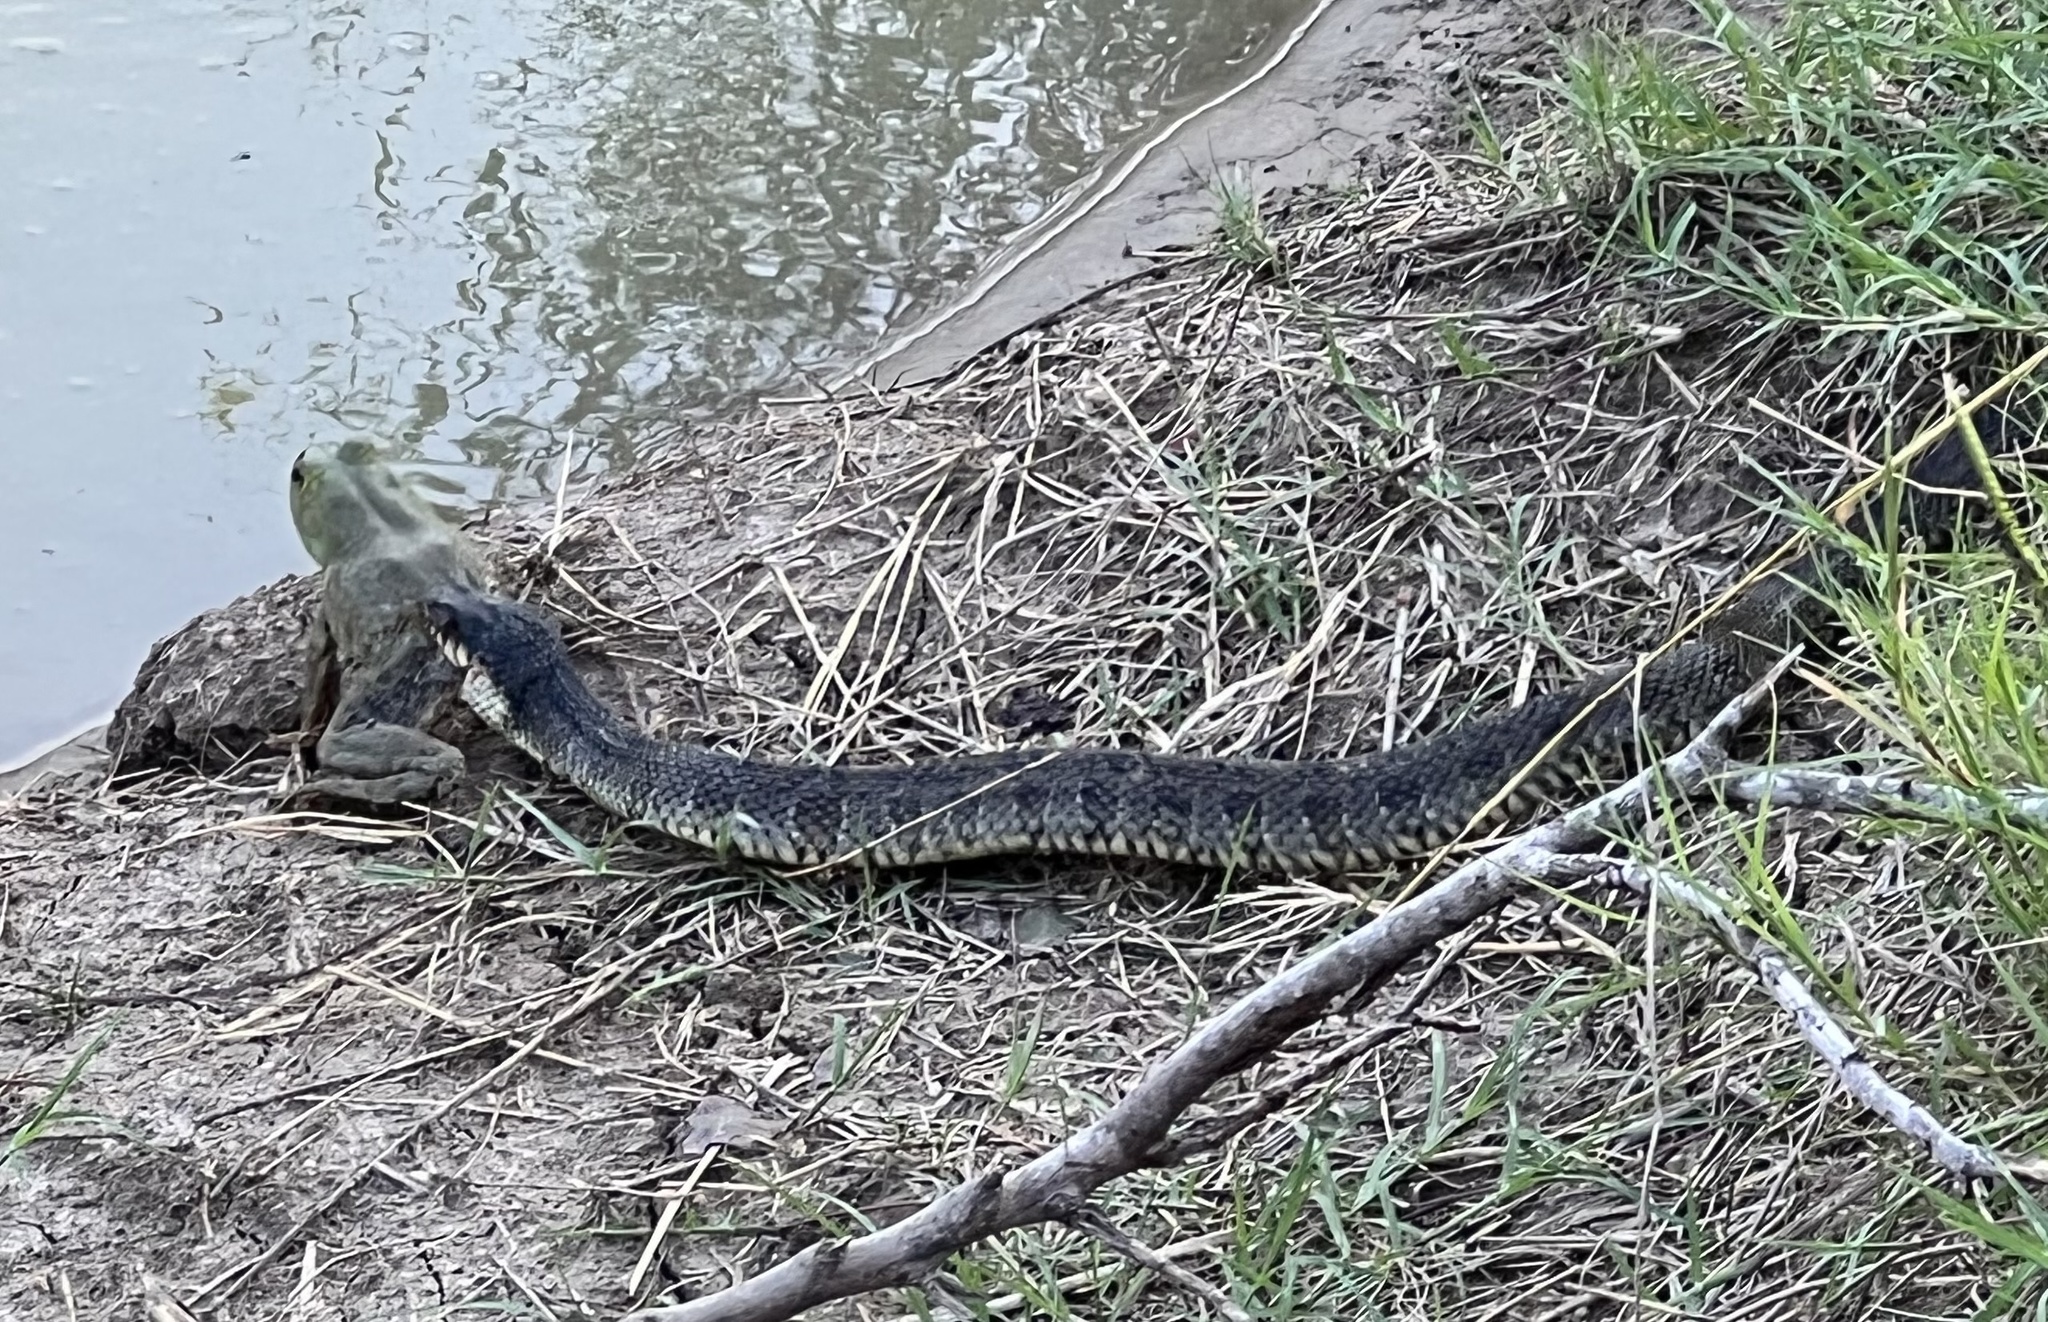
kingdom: Animalia
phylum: Chordata
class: Squamata
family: Colubridae
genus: Nerodia
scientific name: Nerodia erythrogaster
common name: Plainbelly water snake
